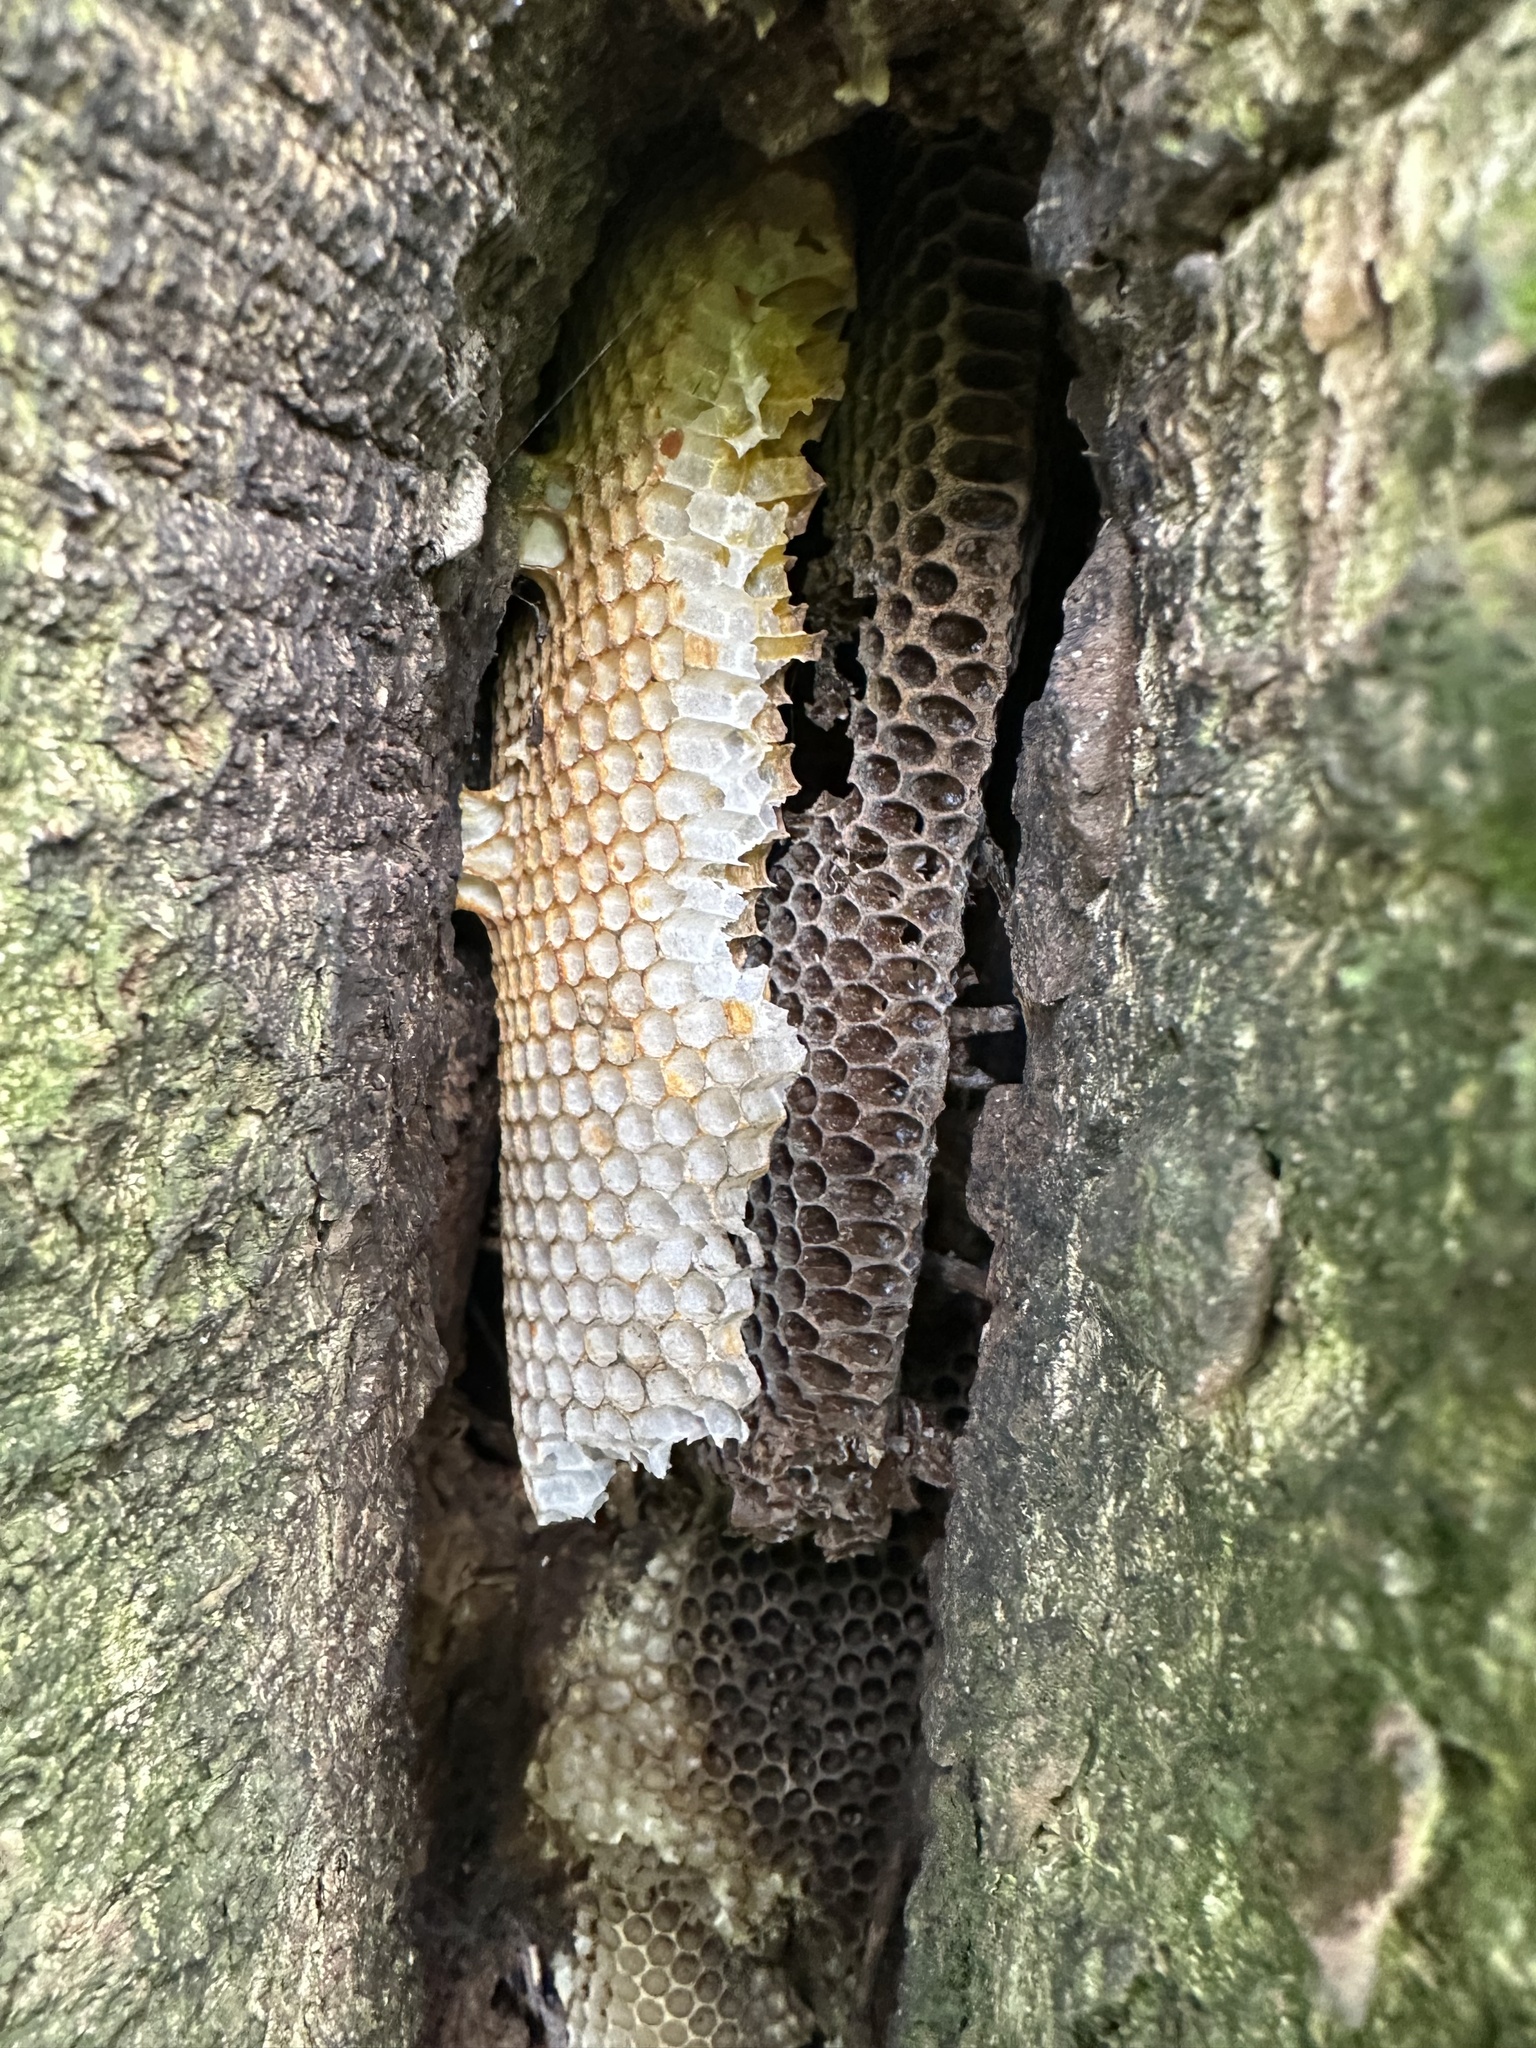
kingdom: Animalia
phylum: Arthropoda
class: Insecta
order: Hymenoptera
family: Apidae
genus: Apis
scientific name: Apis mellifera
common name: Honey bee
